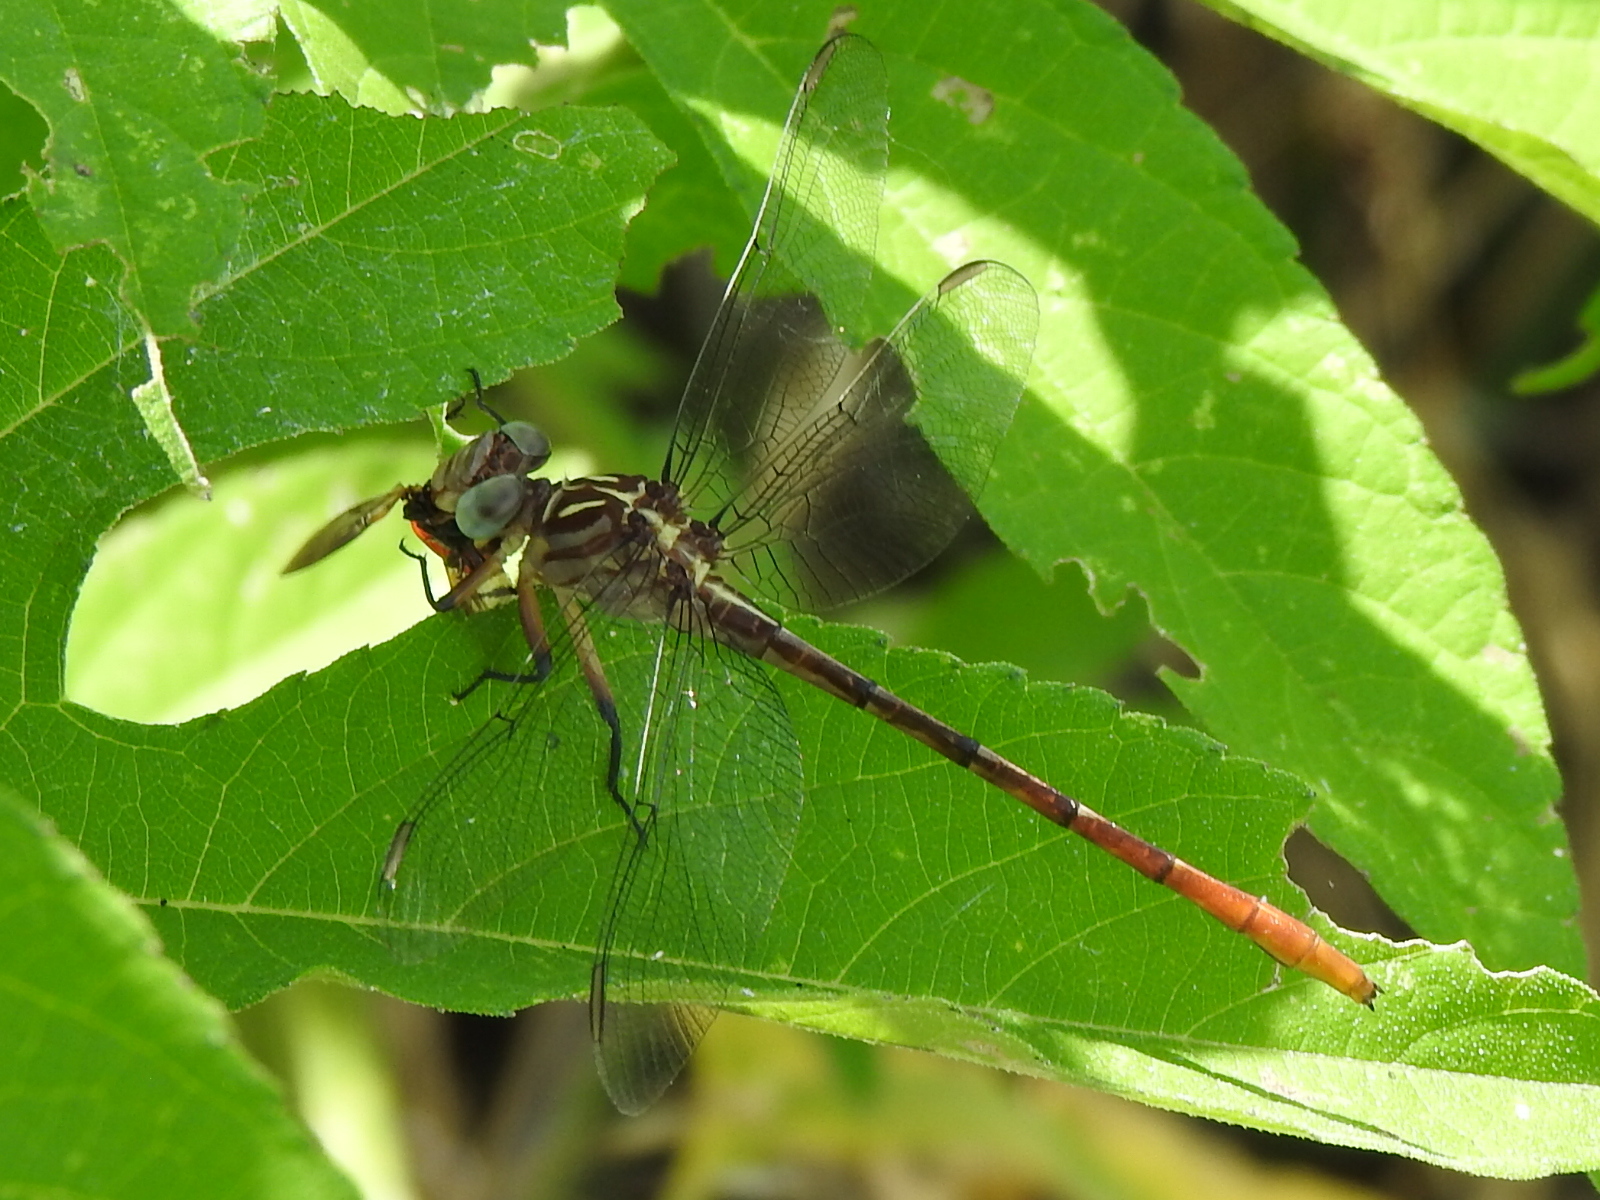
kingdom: Animalia
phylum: Arthropoda
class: Insecta
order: Odonata
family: Gomphidae
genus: Stylurus
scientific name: Stylurus plagiatus
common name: Russet-tipped clubtail
